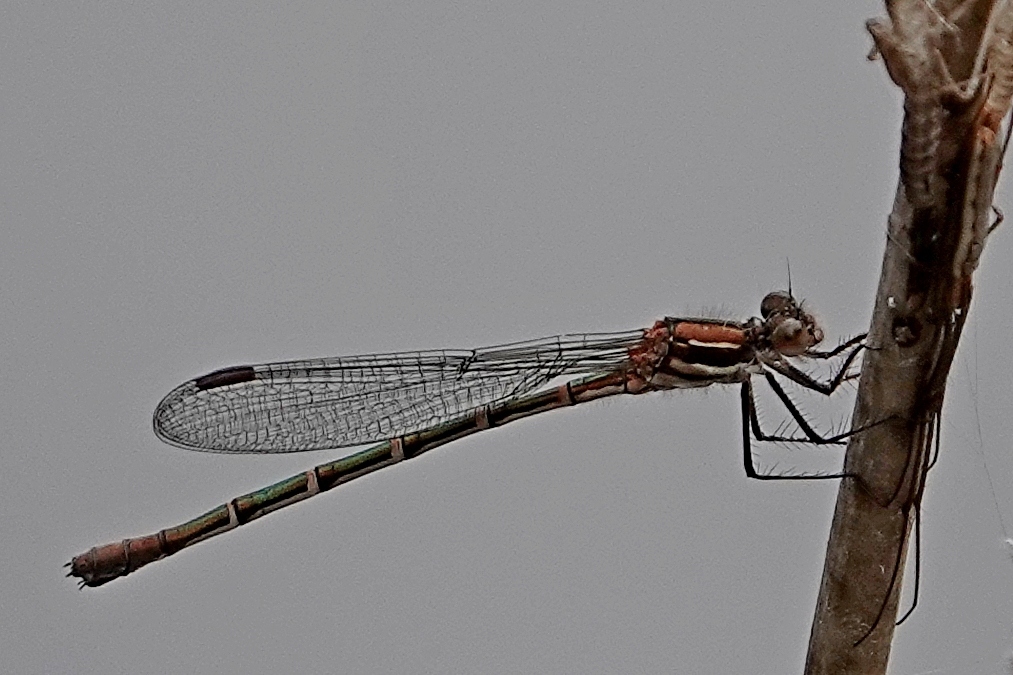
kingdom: Animalia
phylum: Arthropoda
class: Insecta
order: Odonata
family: Lestidae
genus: Austrolestes
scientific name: Austrolestes psyche
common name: Cup ringtail
